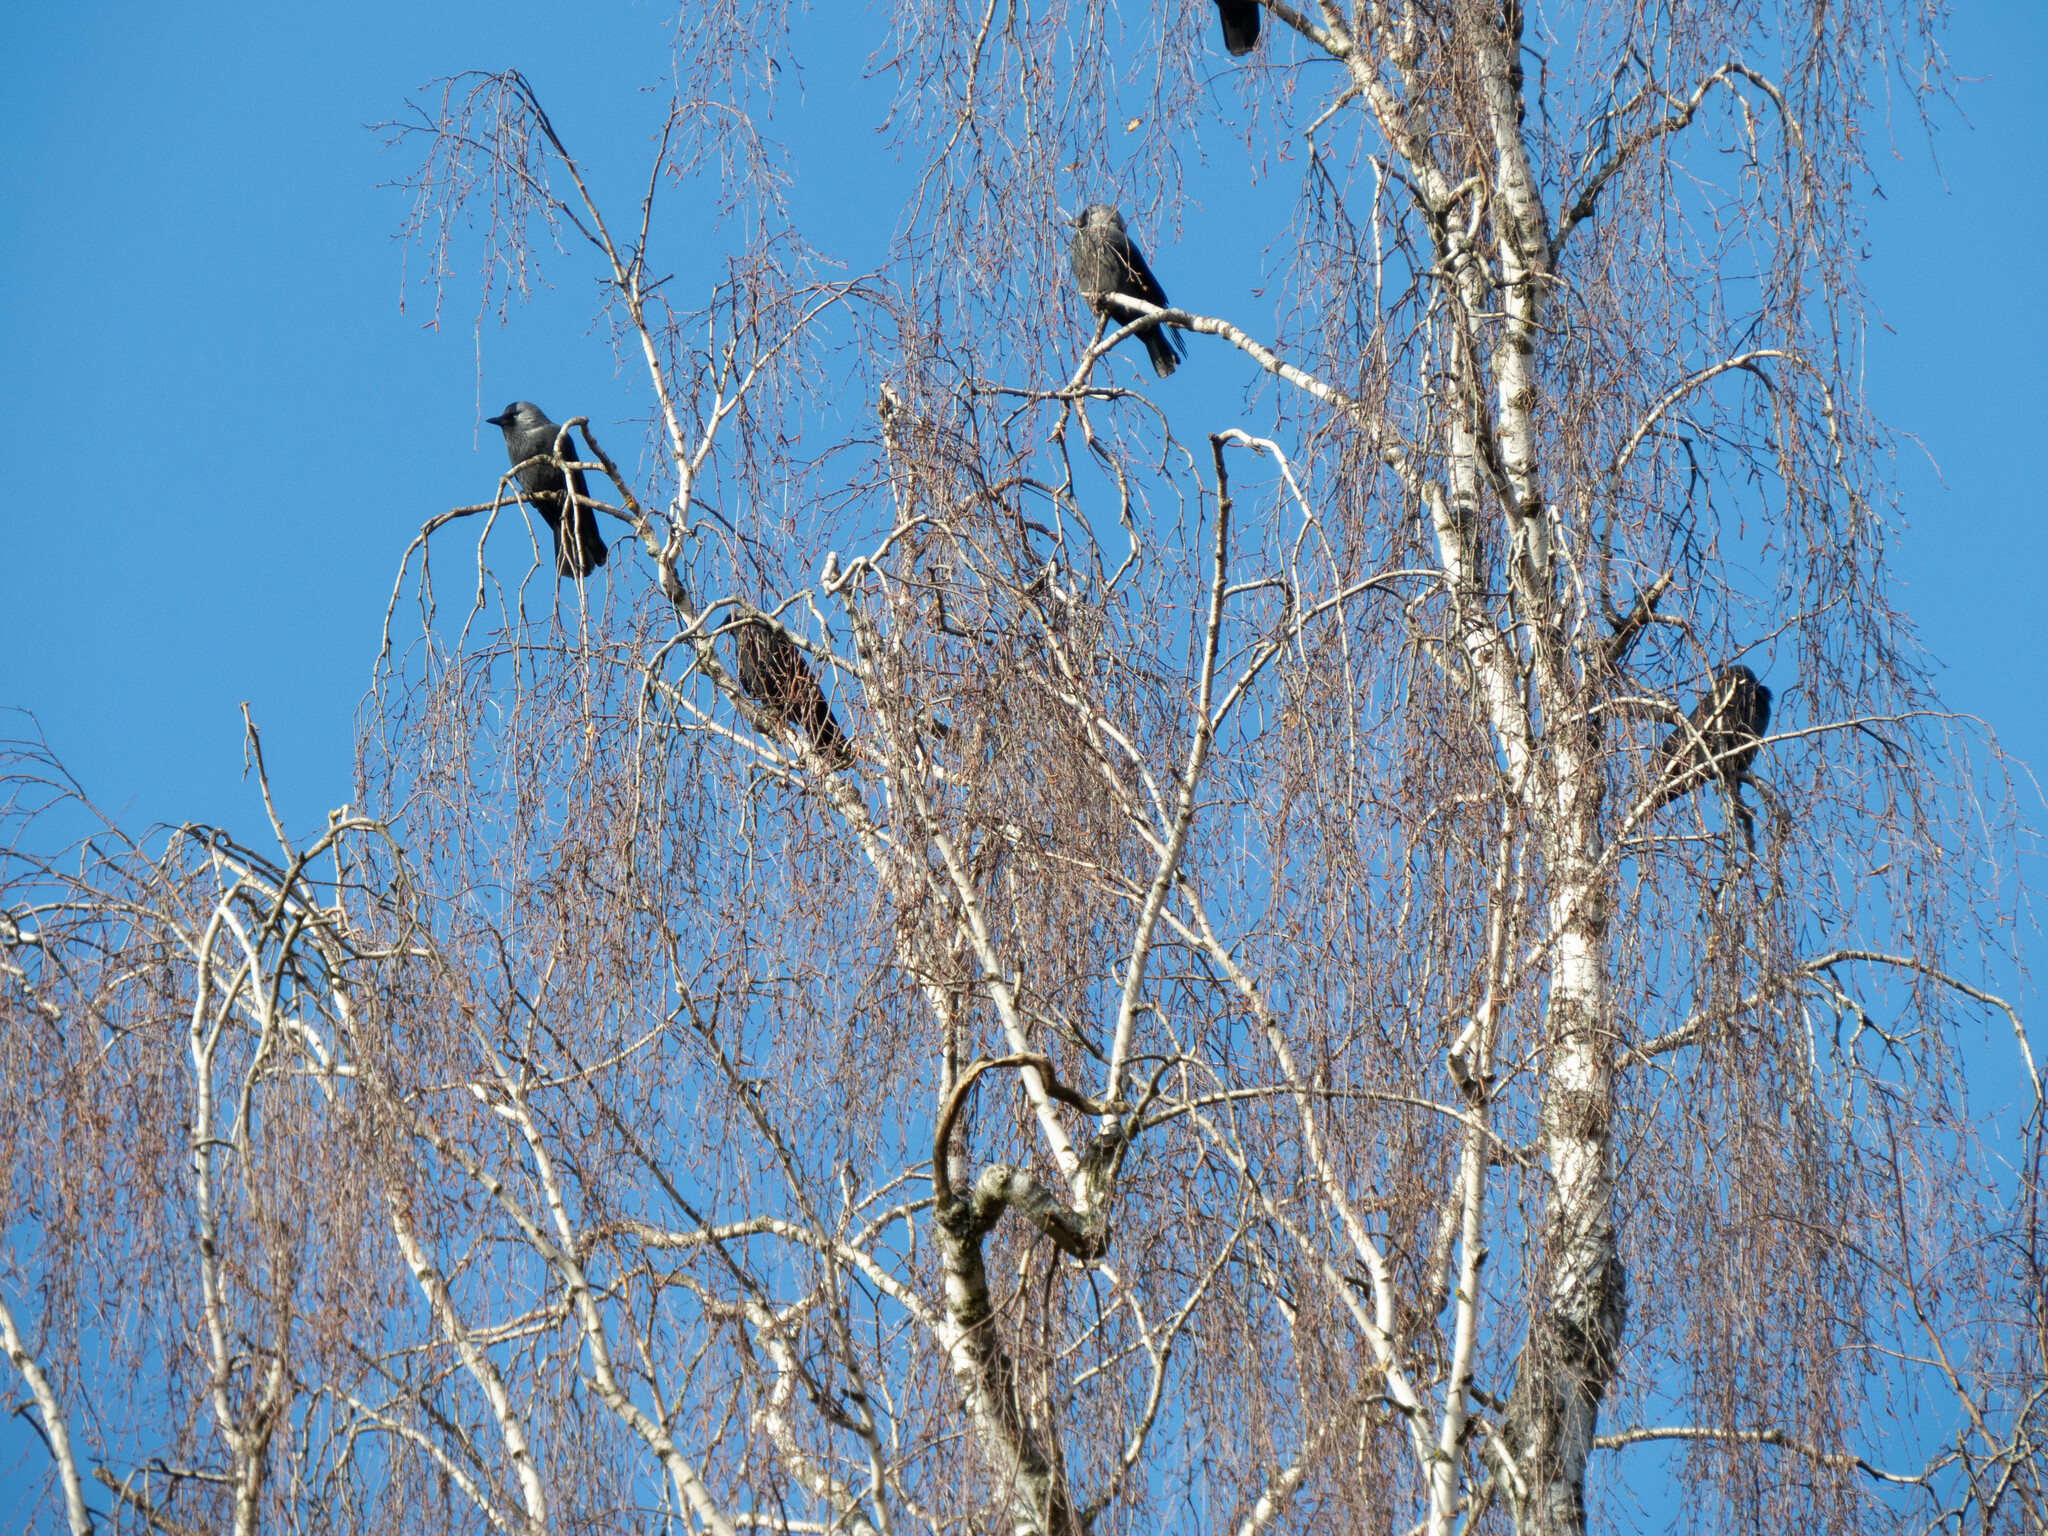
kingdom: Animalia
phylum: Chordata
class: Aves
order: Passeriformes
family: Corvidae
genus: Coloeus
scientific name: Coloeus monedula
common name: Western jackdaw
